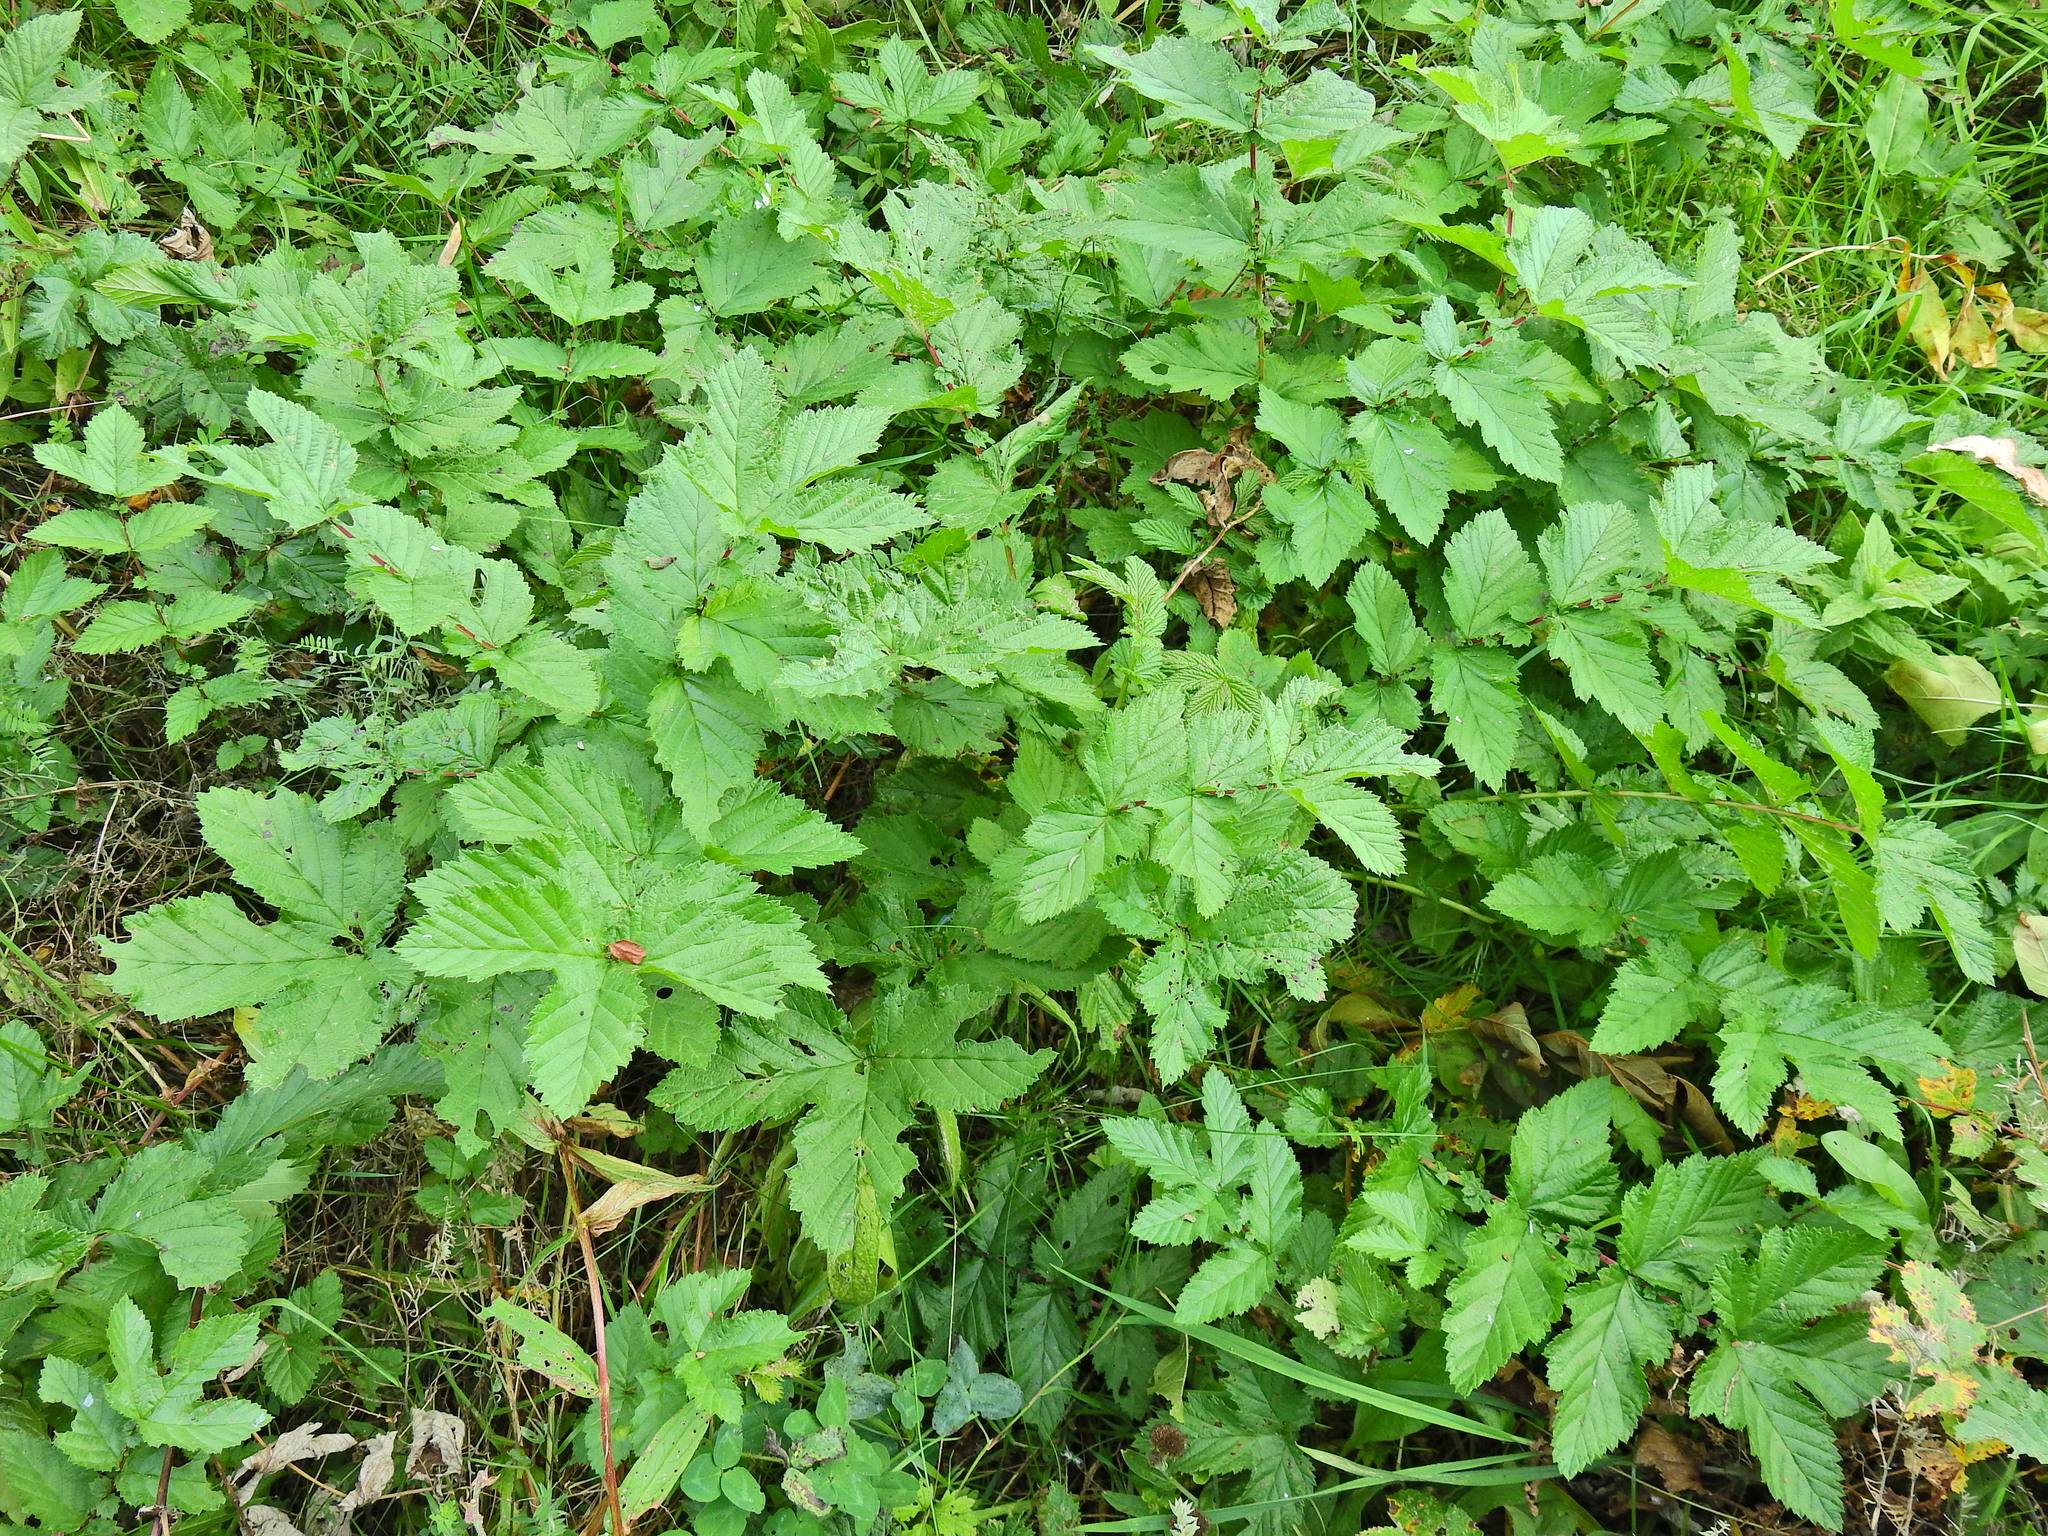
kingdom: Plantae
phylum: Tracheophyta
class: Magnoliopsida
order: Rosales
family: Rosaceae
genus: Filipendula
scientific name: Filipendula ulmaria
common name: Meadowsweet
